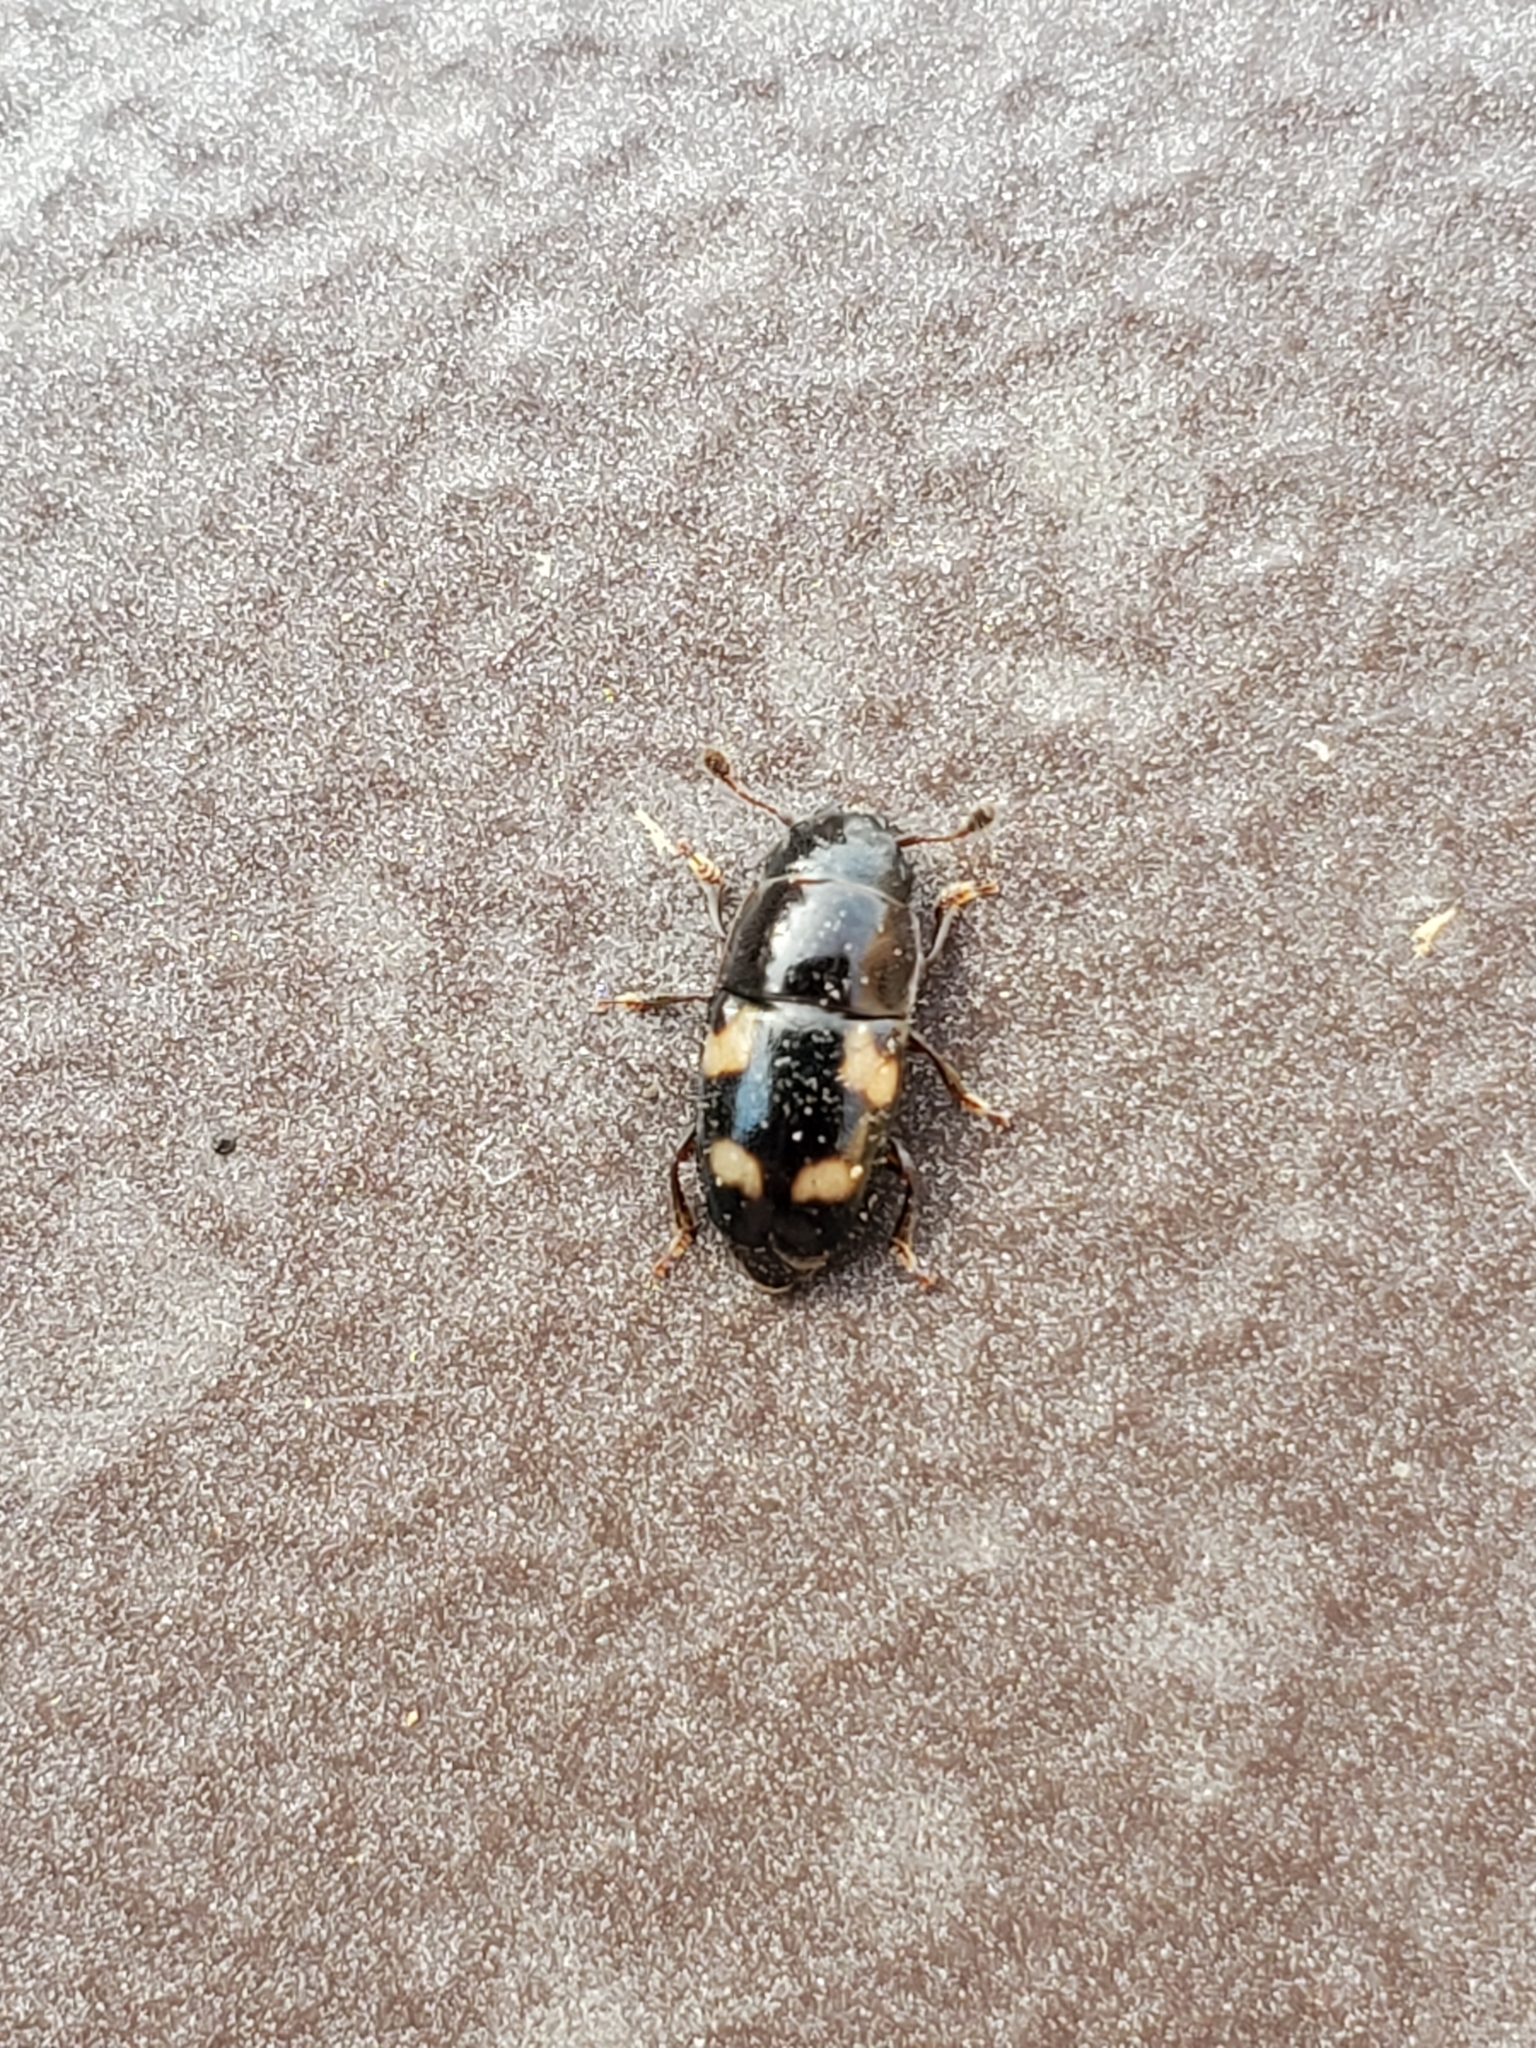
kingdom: Animalia
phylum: Arthropoda
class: Insecta
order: Coleoptera
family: Nitidulidae
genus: Glischrochilus
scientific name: Glischrochilus quadrisignatus
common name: Picnic beetle
